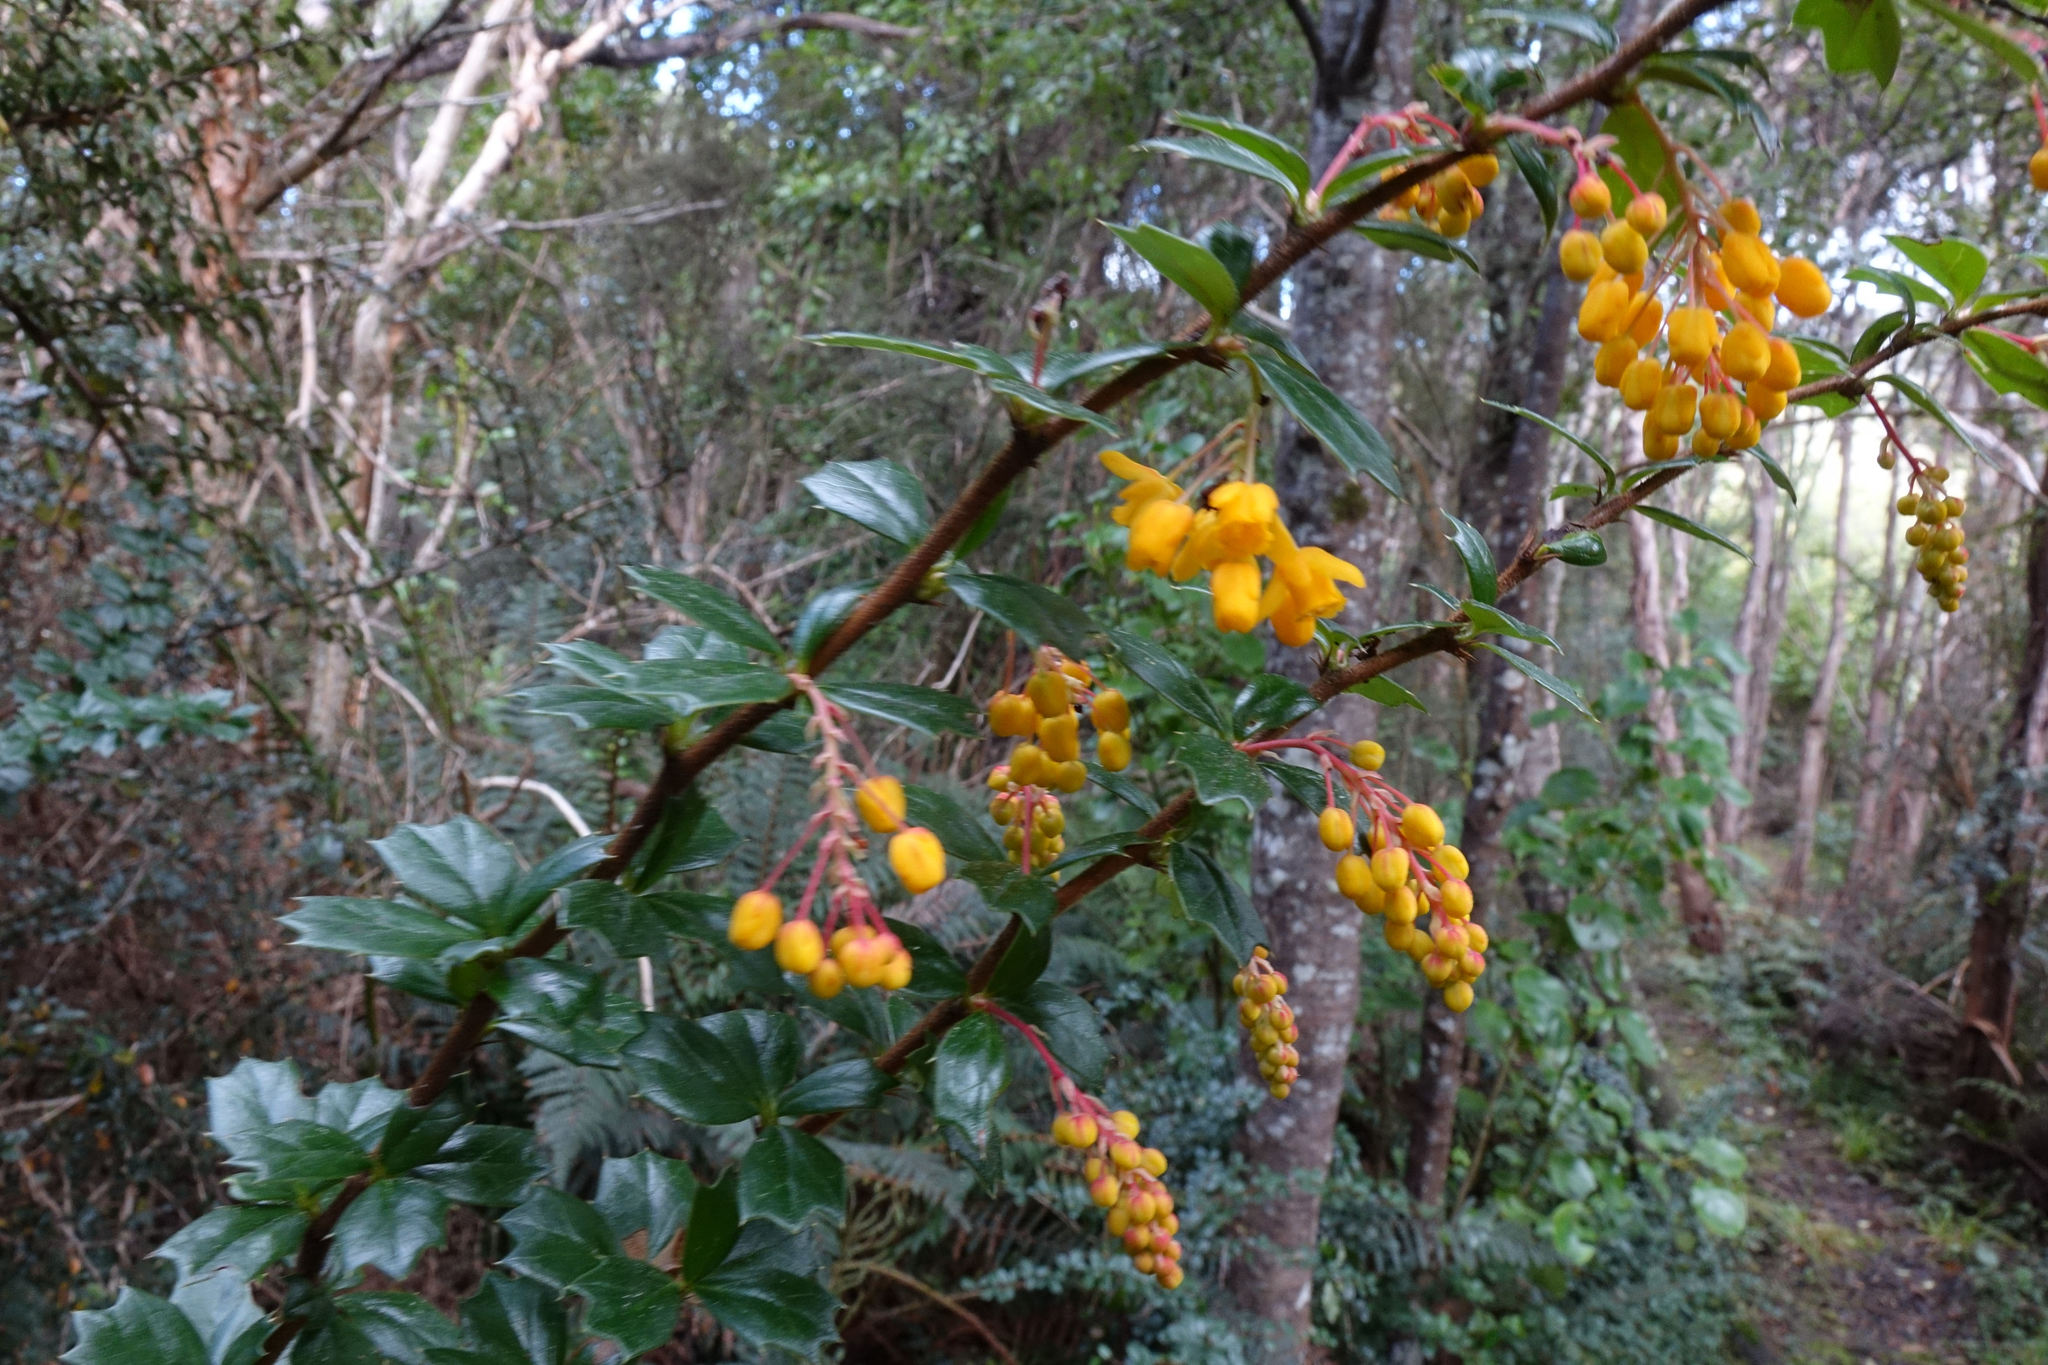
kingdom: Plantae
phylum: Tracheophyta
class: Magnoliopsida
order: Ranunculales
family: Berberidaceae
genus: Berberis
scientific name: Berberis darwinii
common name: Darwin's barberry
